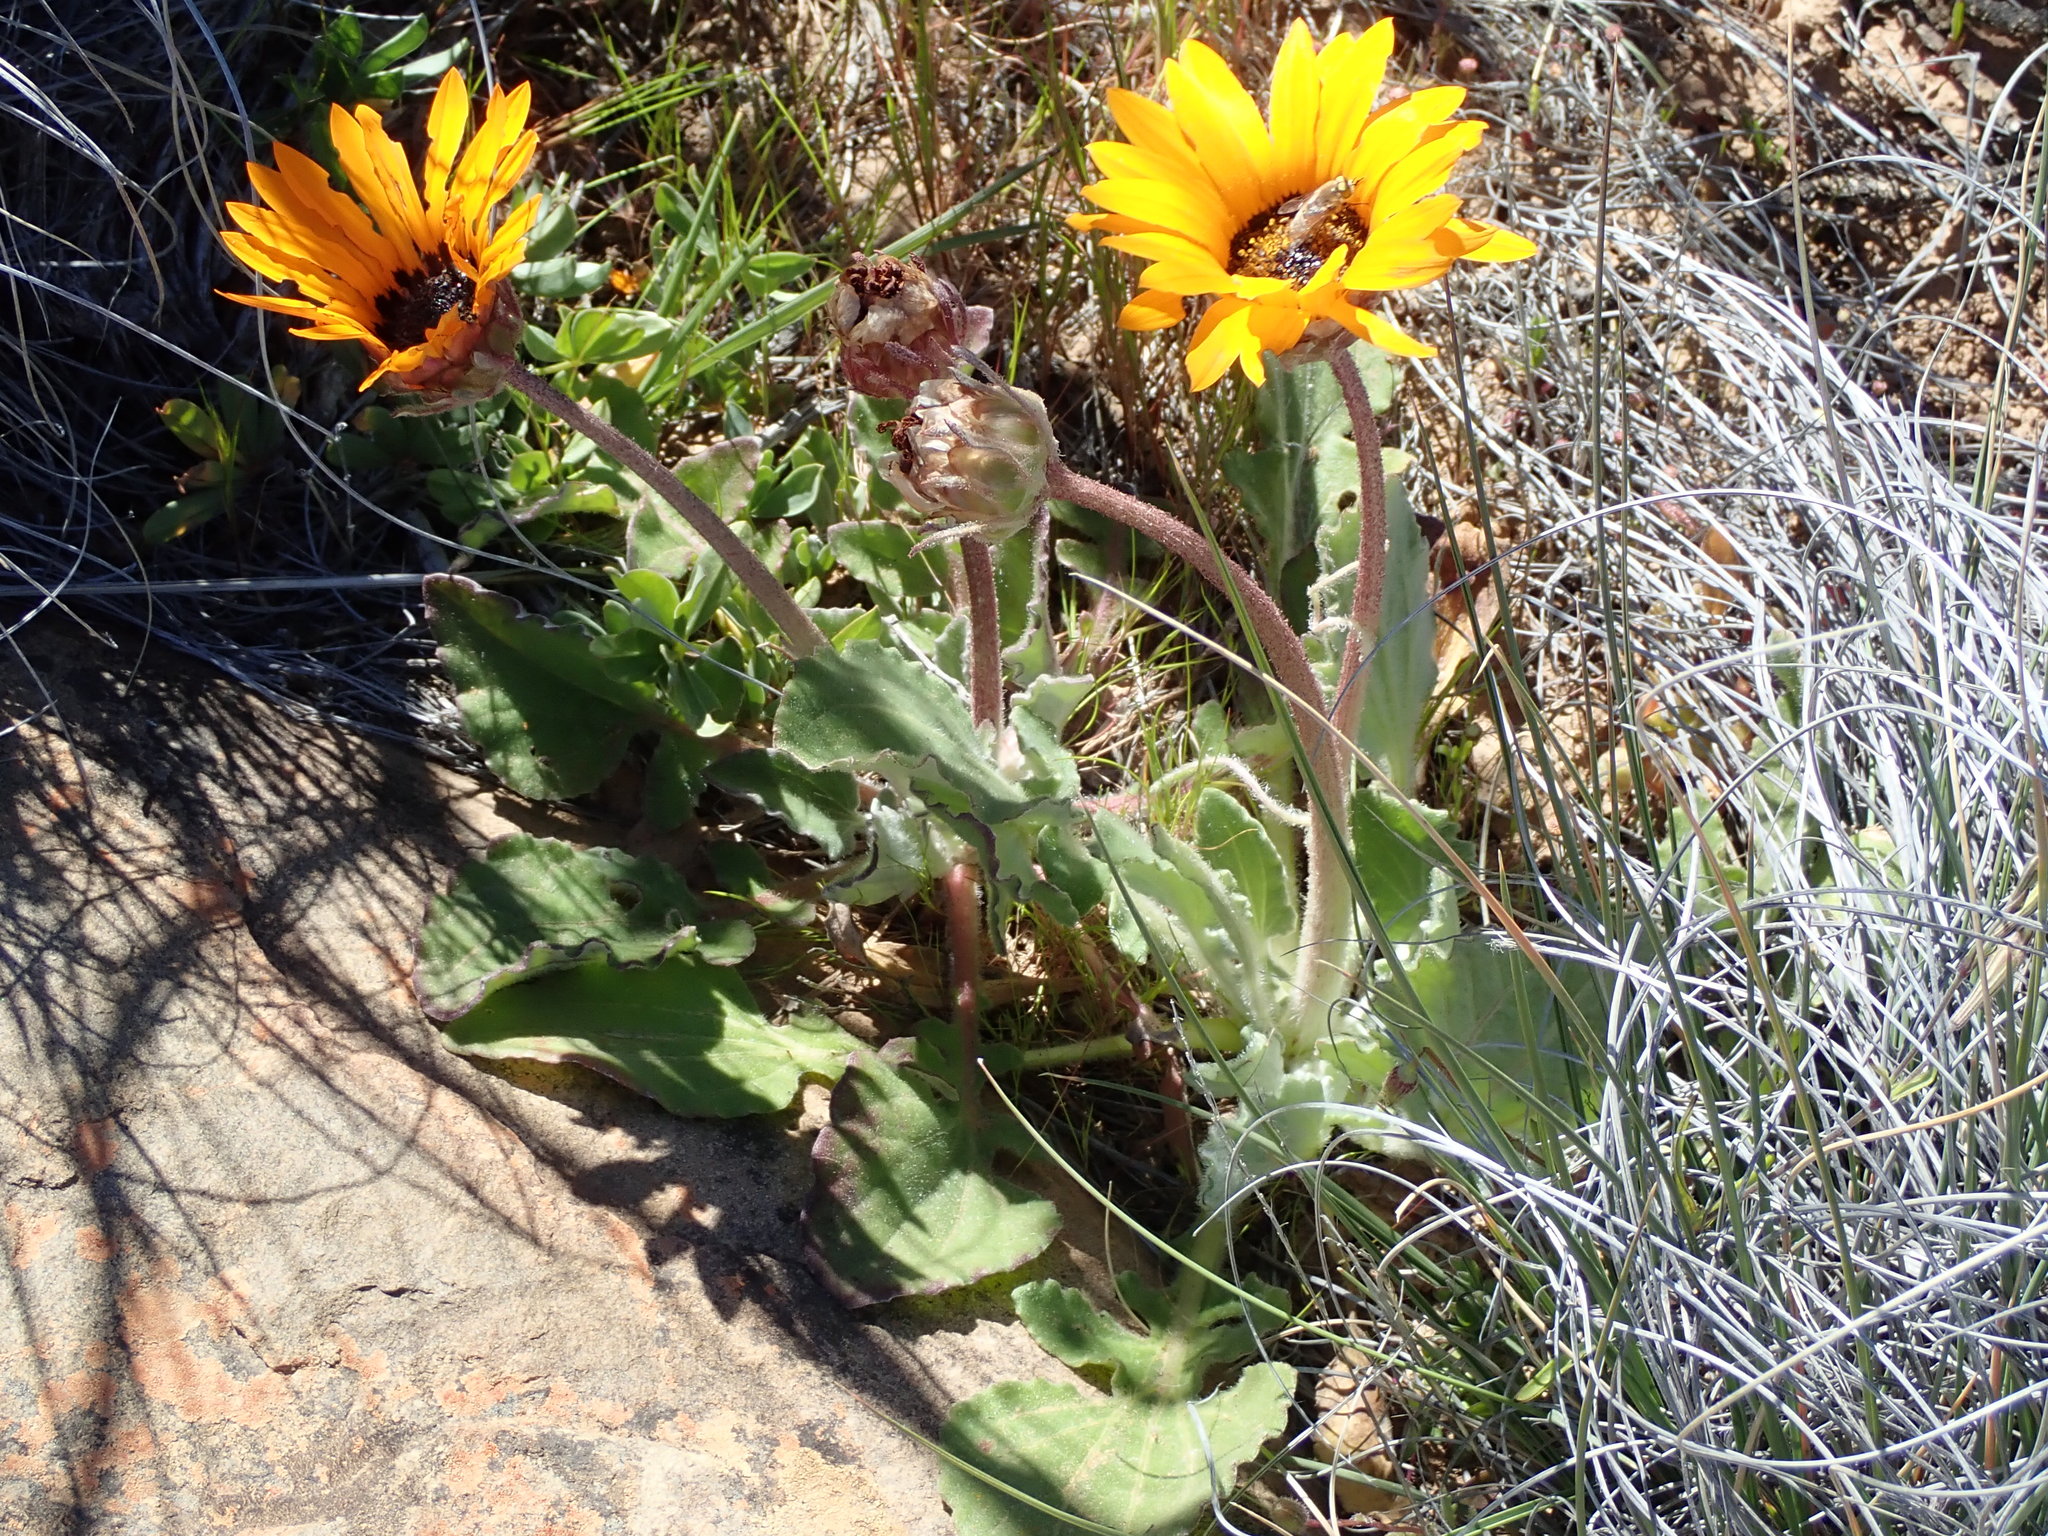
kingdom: Plantae
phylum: Tracheophyta
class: Magnoliopsida
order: Asterales
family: Asteraceae
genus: Arctotis
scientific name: Arctotis acaulis
